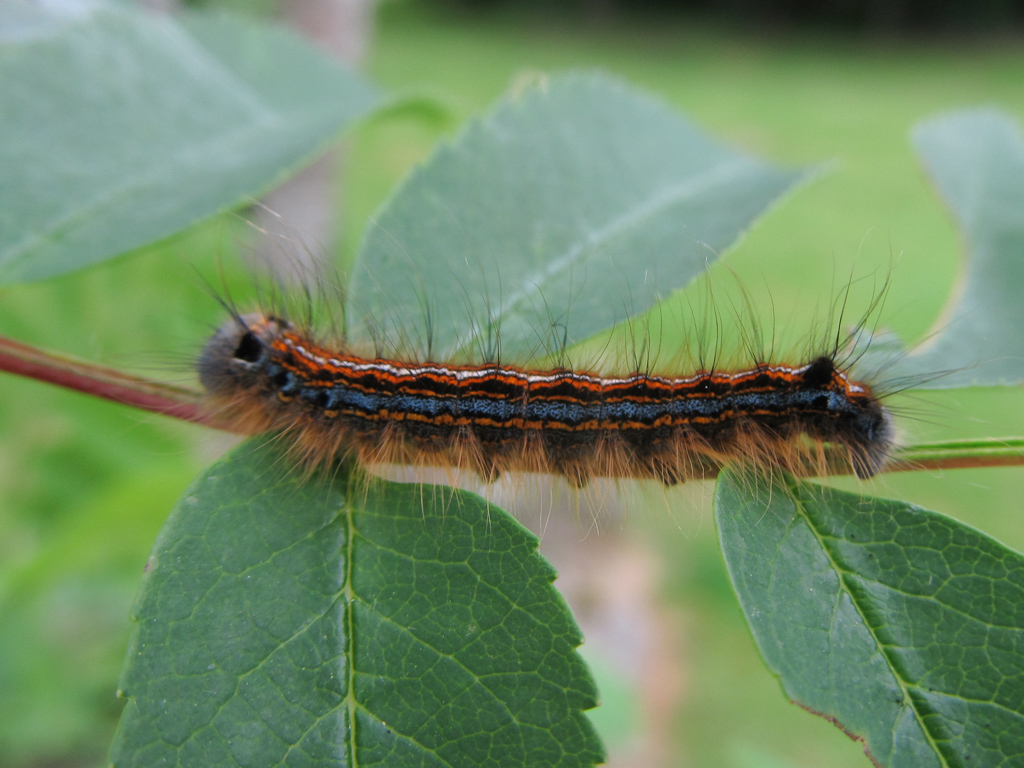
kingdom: Animalia
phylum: Arthropoda
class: Insecta
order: Lepidoptera
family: Lasiocampidae
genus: Malacosoma
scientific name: Malacosoma neustria
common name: The lackey
